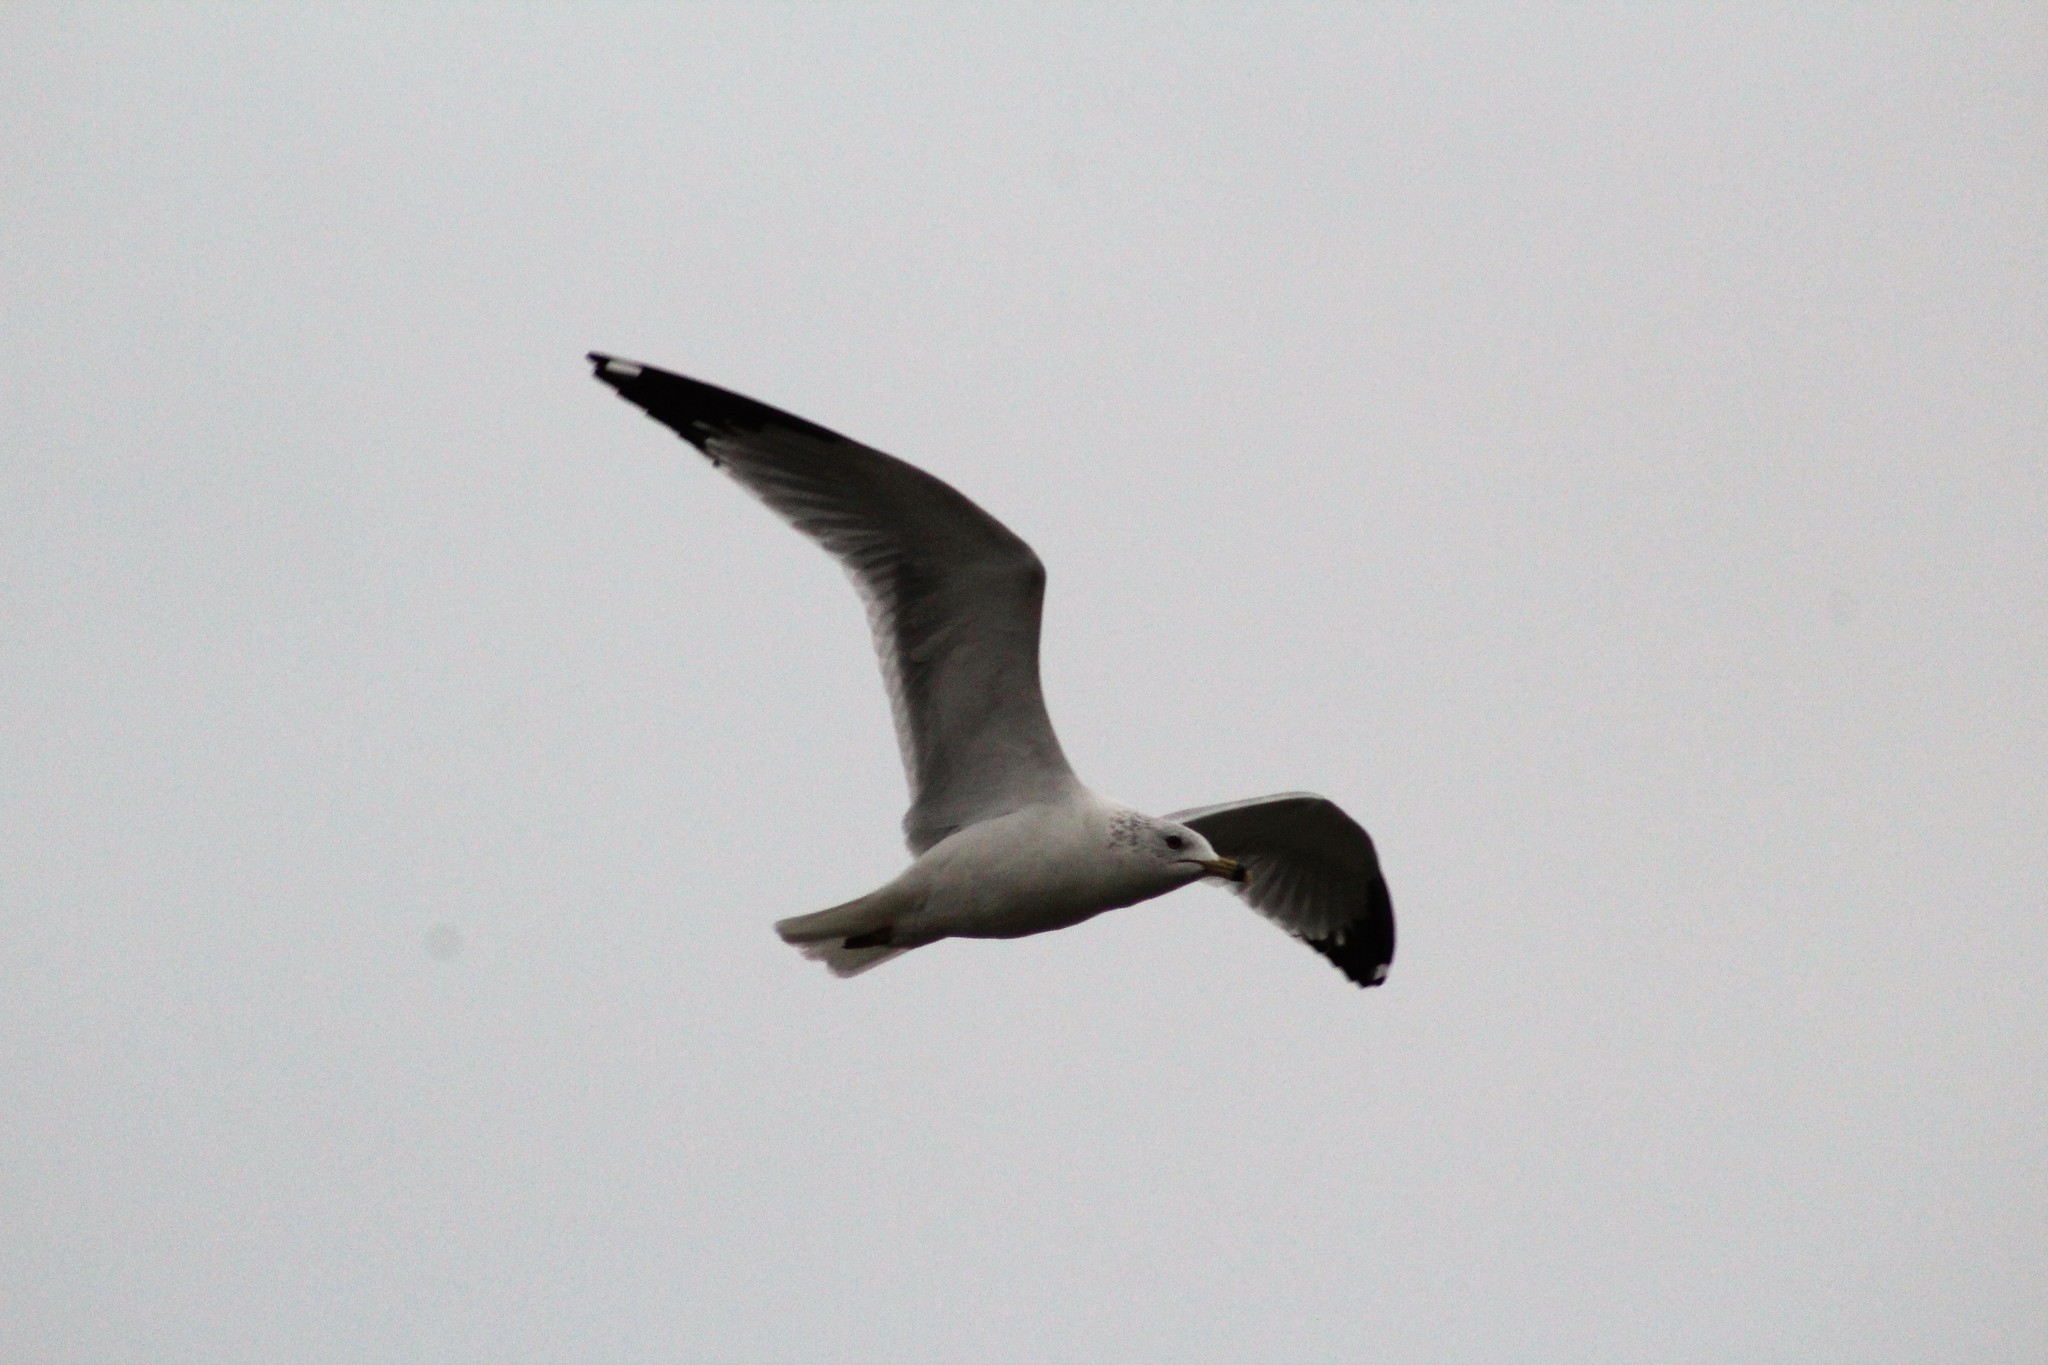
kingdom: Animalia
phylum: Chordata
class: Aves
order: Charadriiformes
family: Laridae
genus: Larus
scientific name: Larus delawarensis
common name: Ring-billed gull
